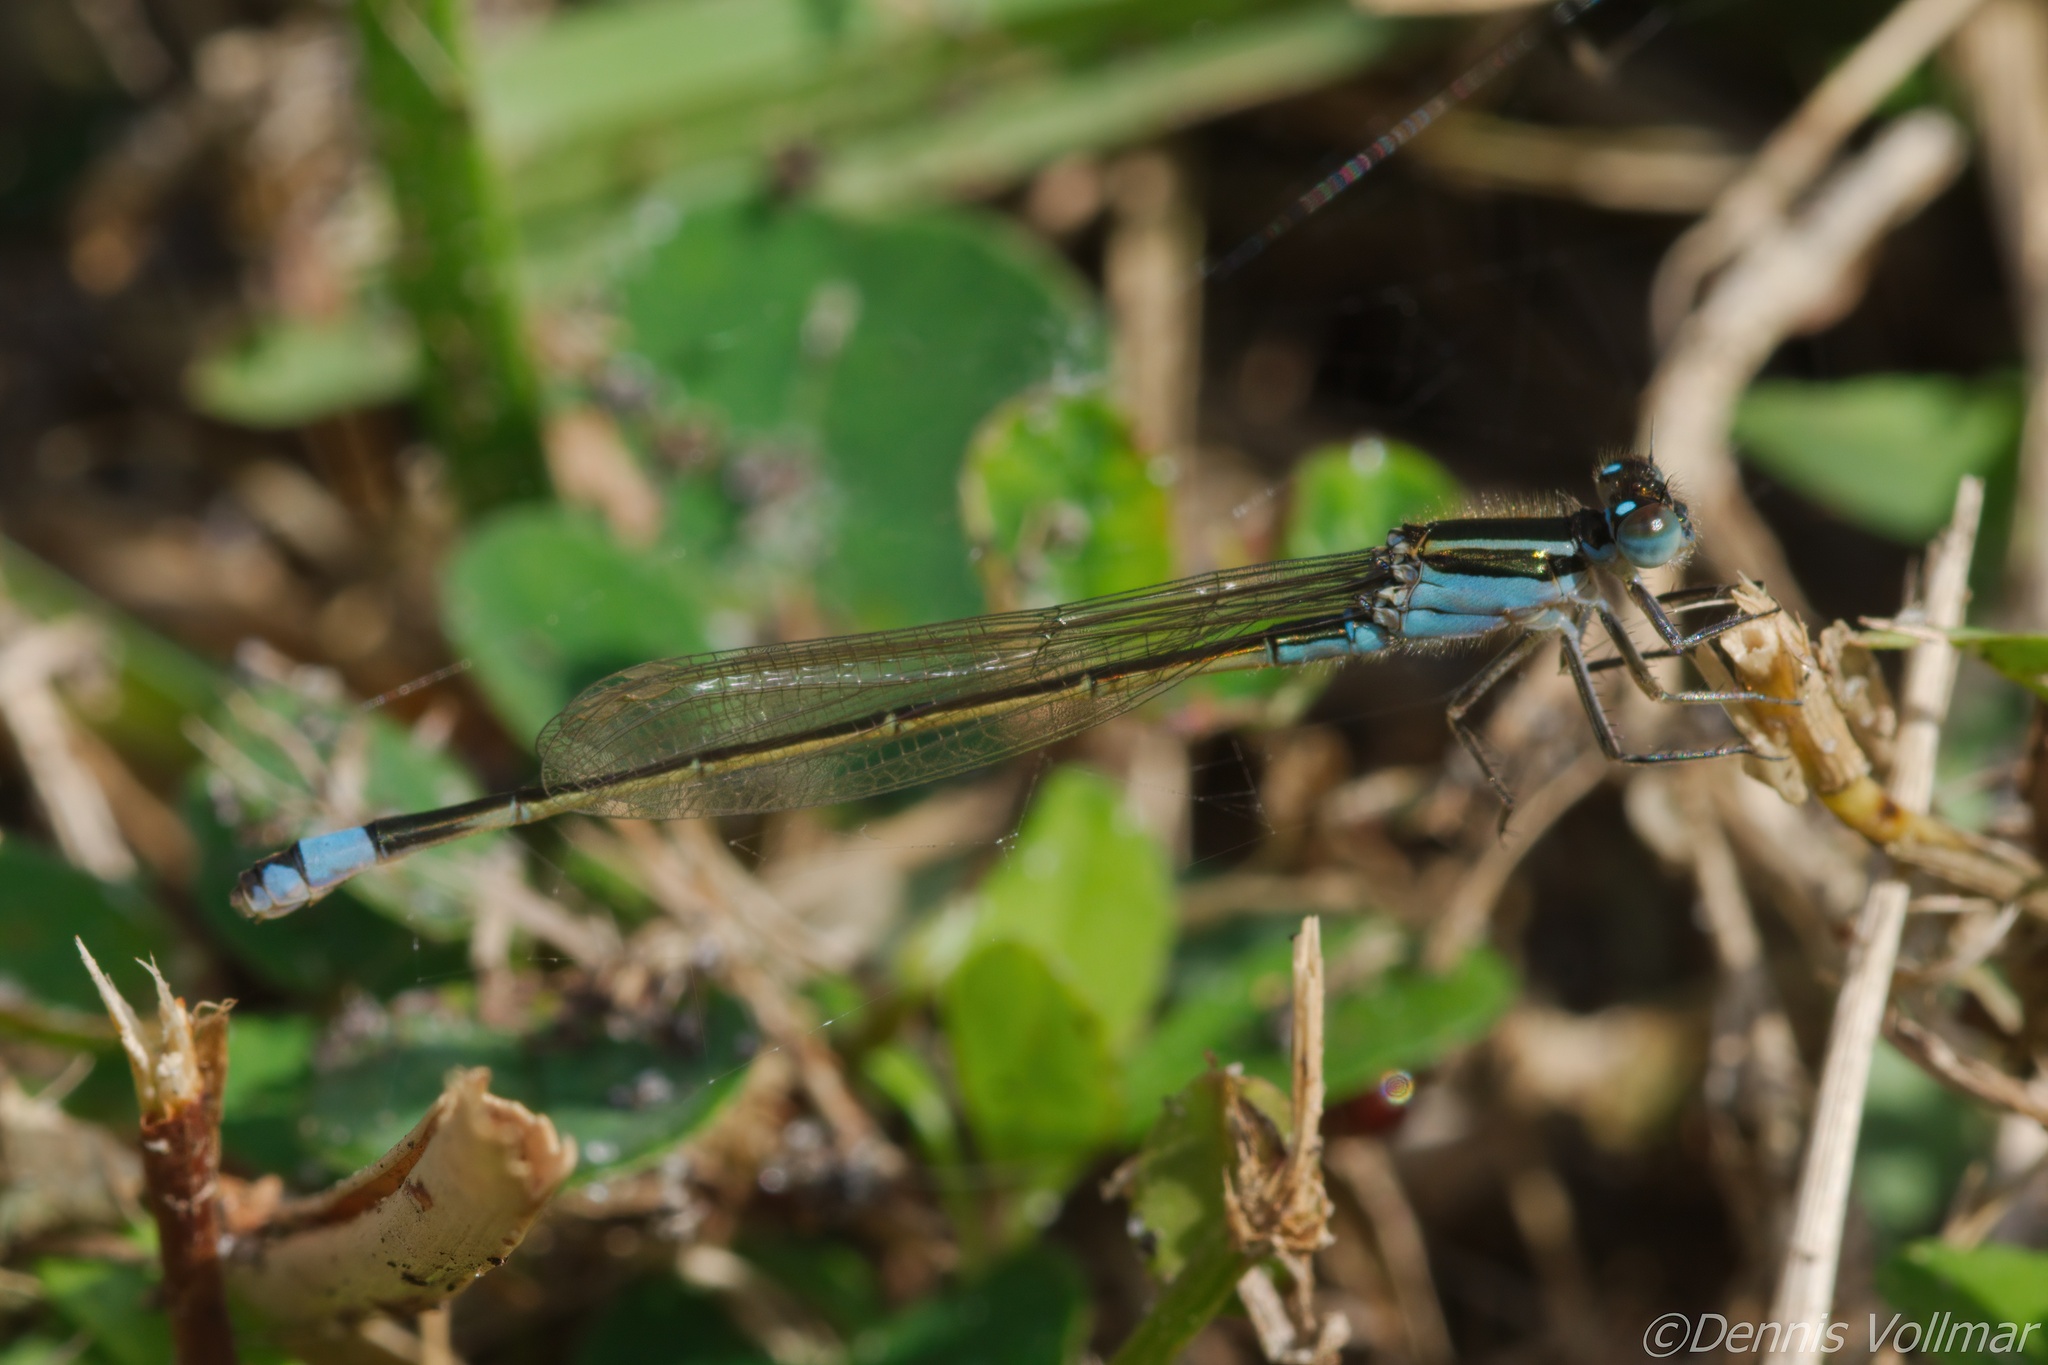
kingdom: Animalia
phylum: Arthropoda
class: Insecta
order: Odonata
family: Coenagrionidae
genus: Ischnura
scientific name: Ischnura ramburii
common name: Rambur's forktail
